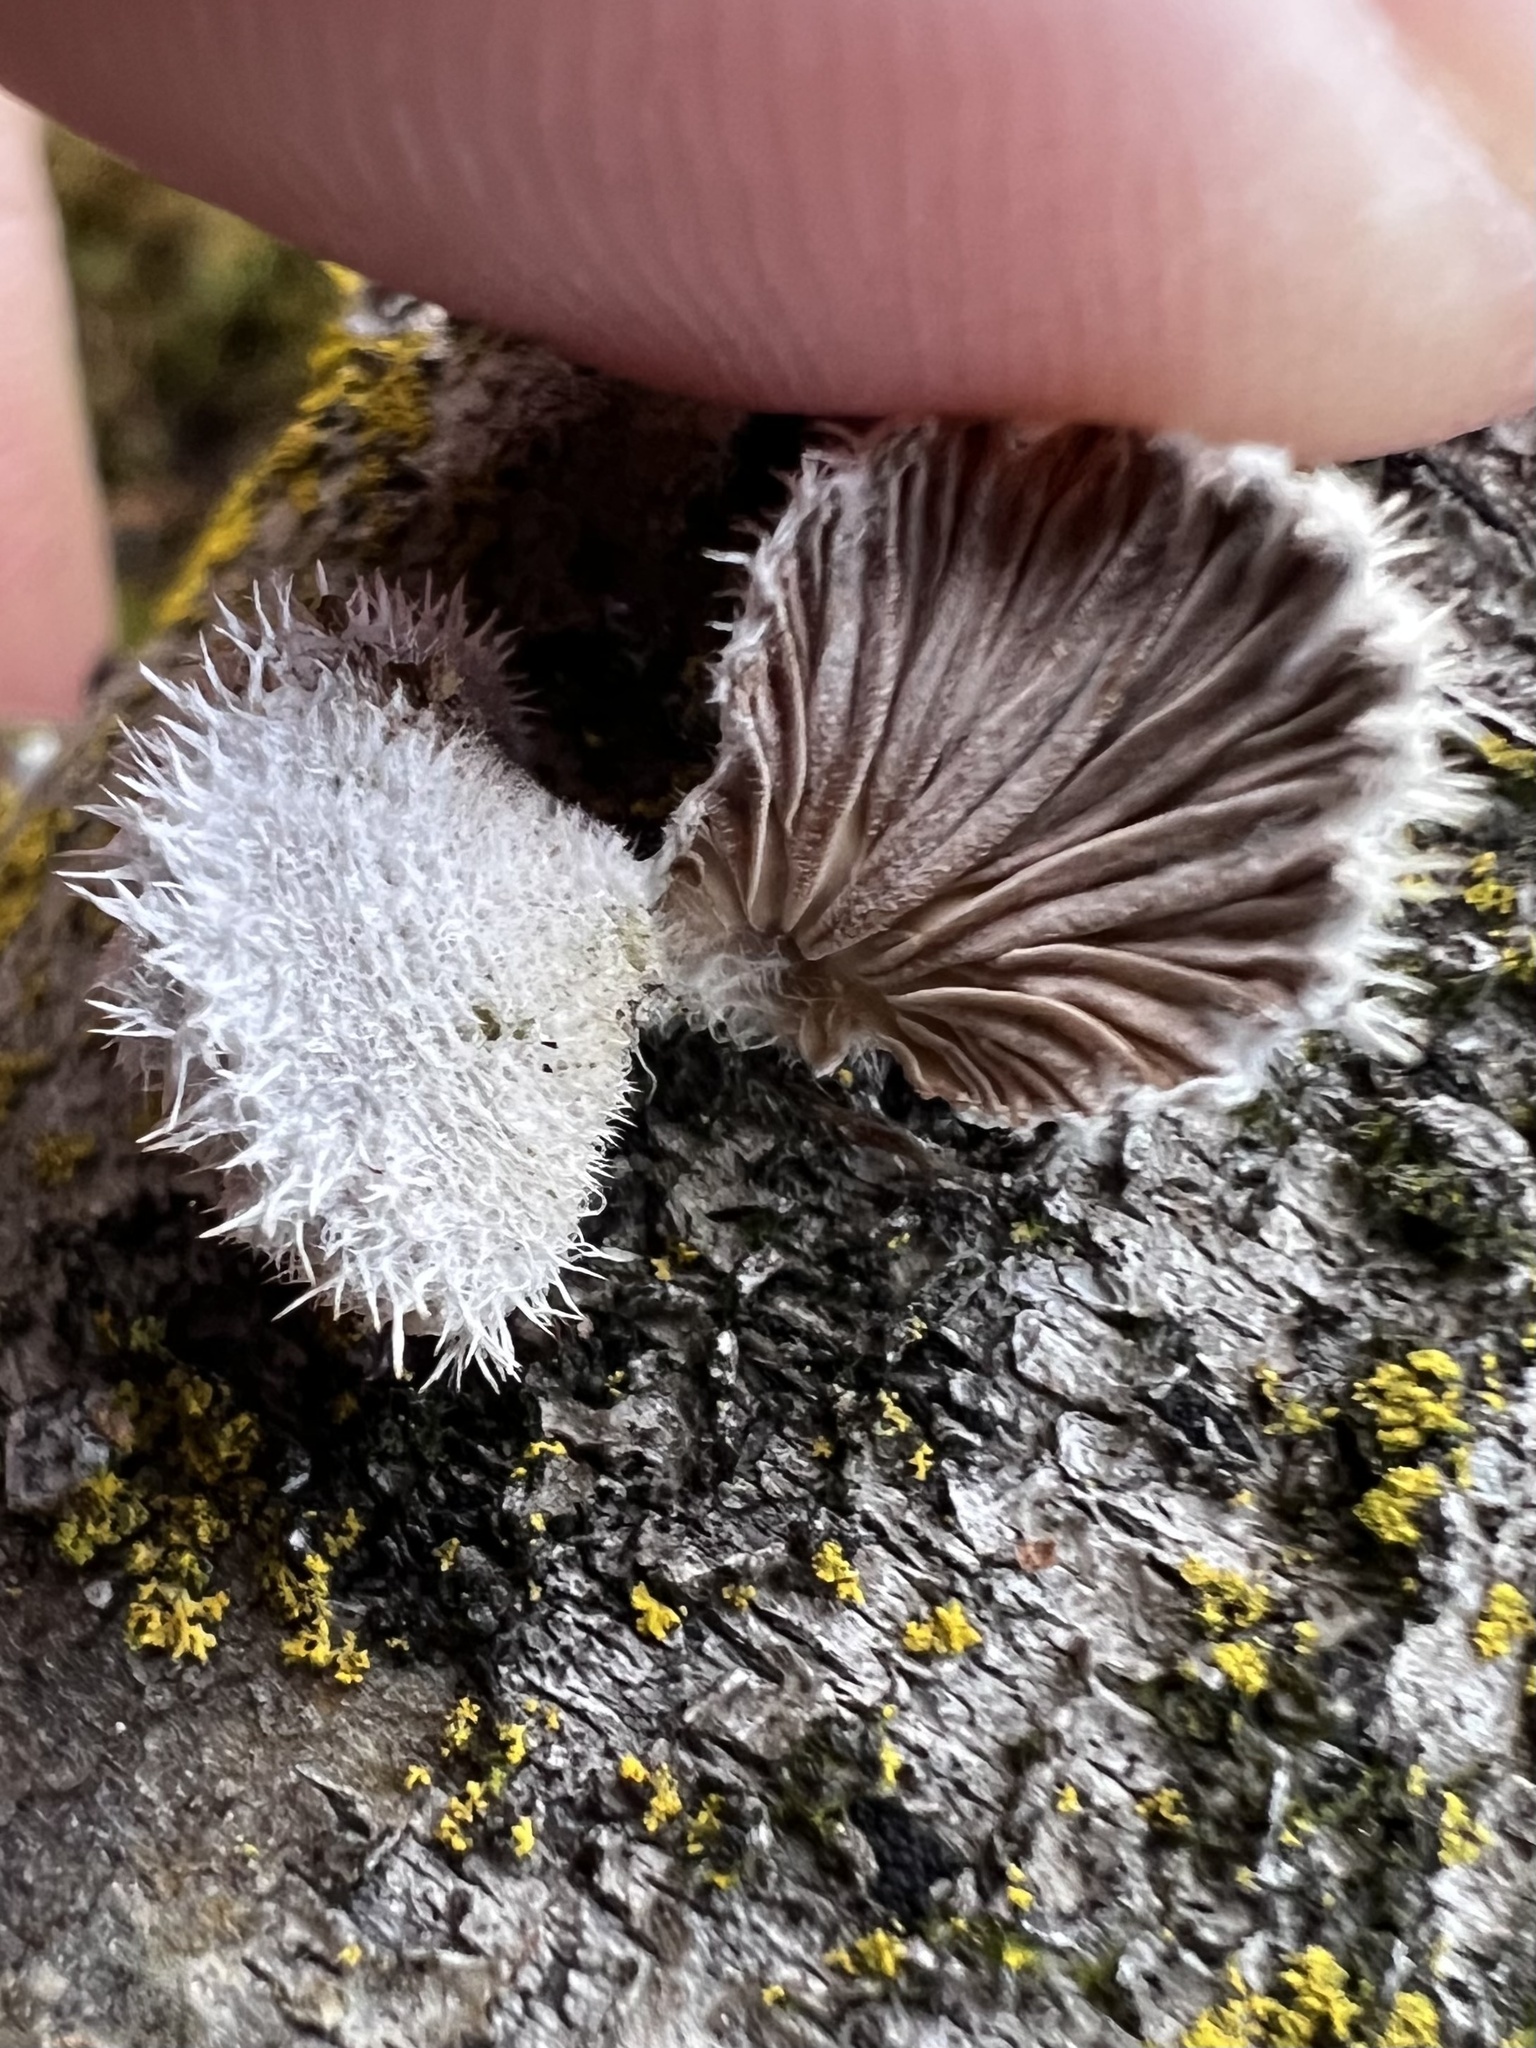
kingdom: Fungi
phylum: Basidiomycota
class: Agaricomycetes
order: Agaricales
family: Schizophyllaceae
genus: Schizophyllum
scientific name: Schizophyllum commune
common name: Common porecrust
